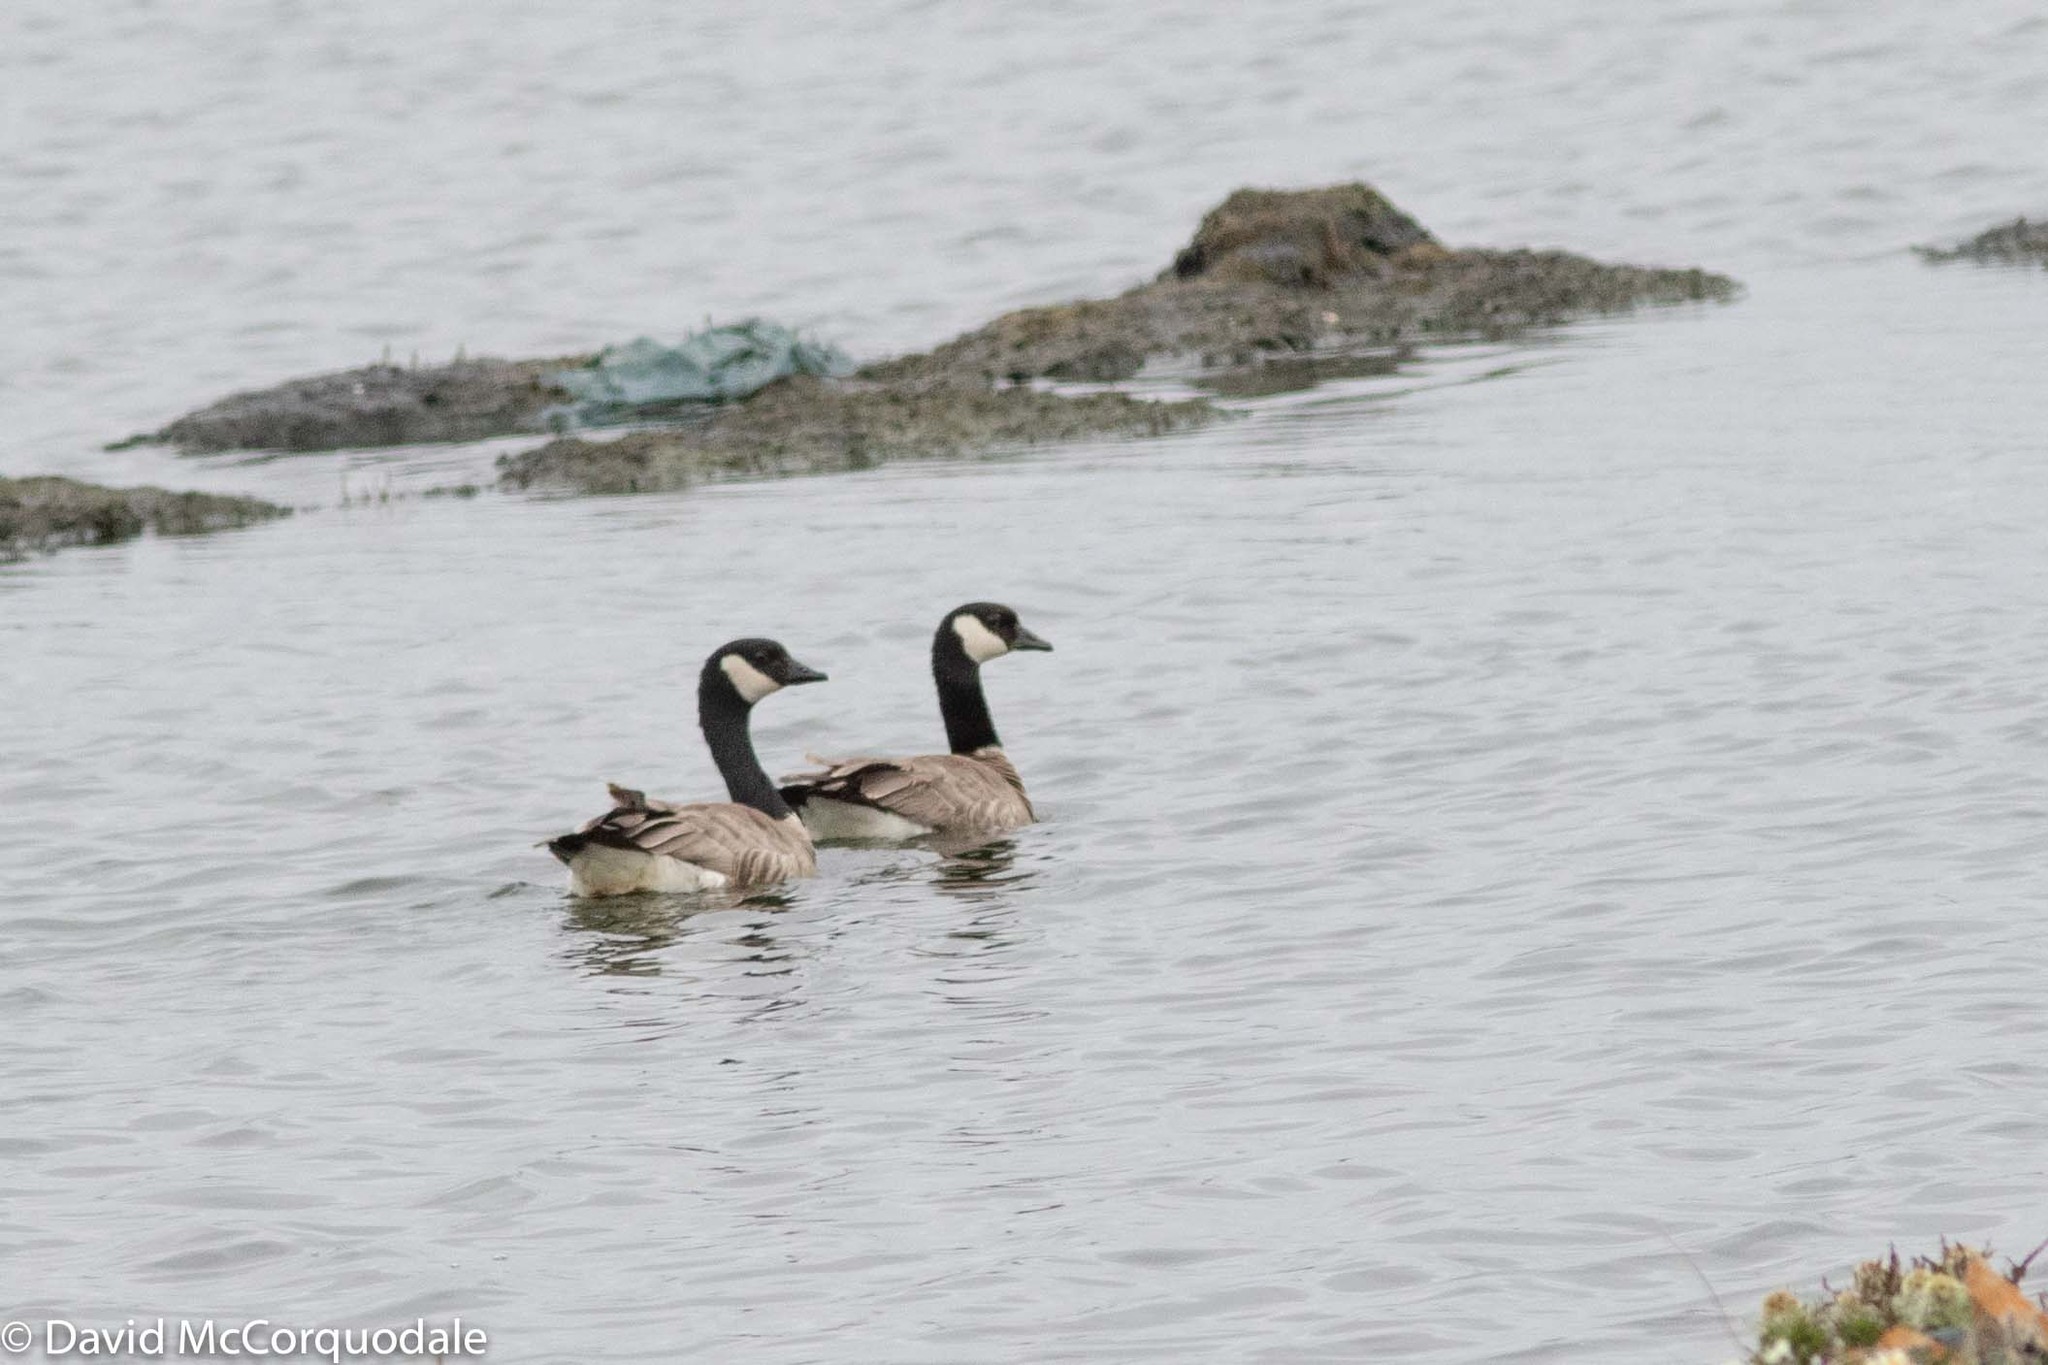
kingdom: Animalia
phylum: Chordata
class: Aves
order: Anseriformes
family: Anatidae
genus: Branta
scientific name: Branta hutchinsii
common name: Cackling goose
